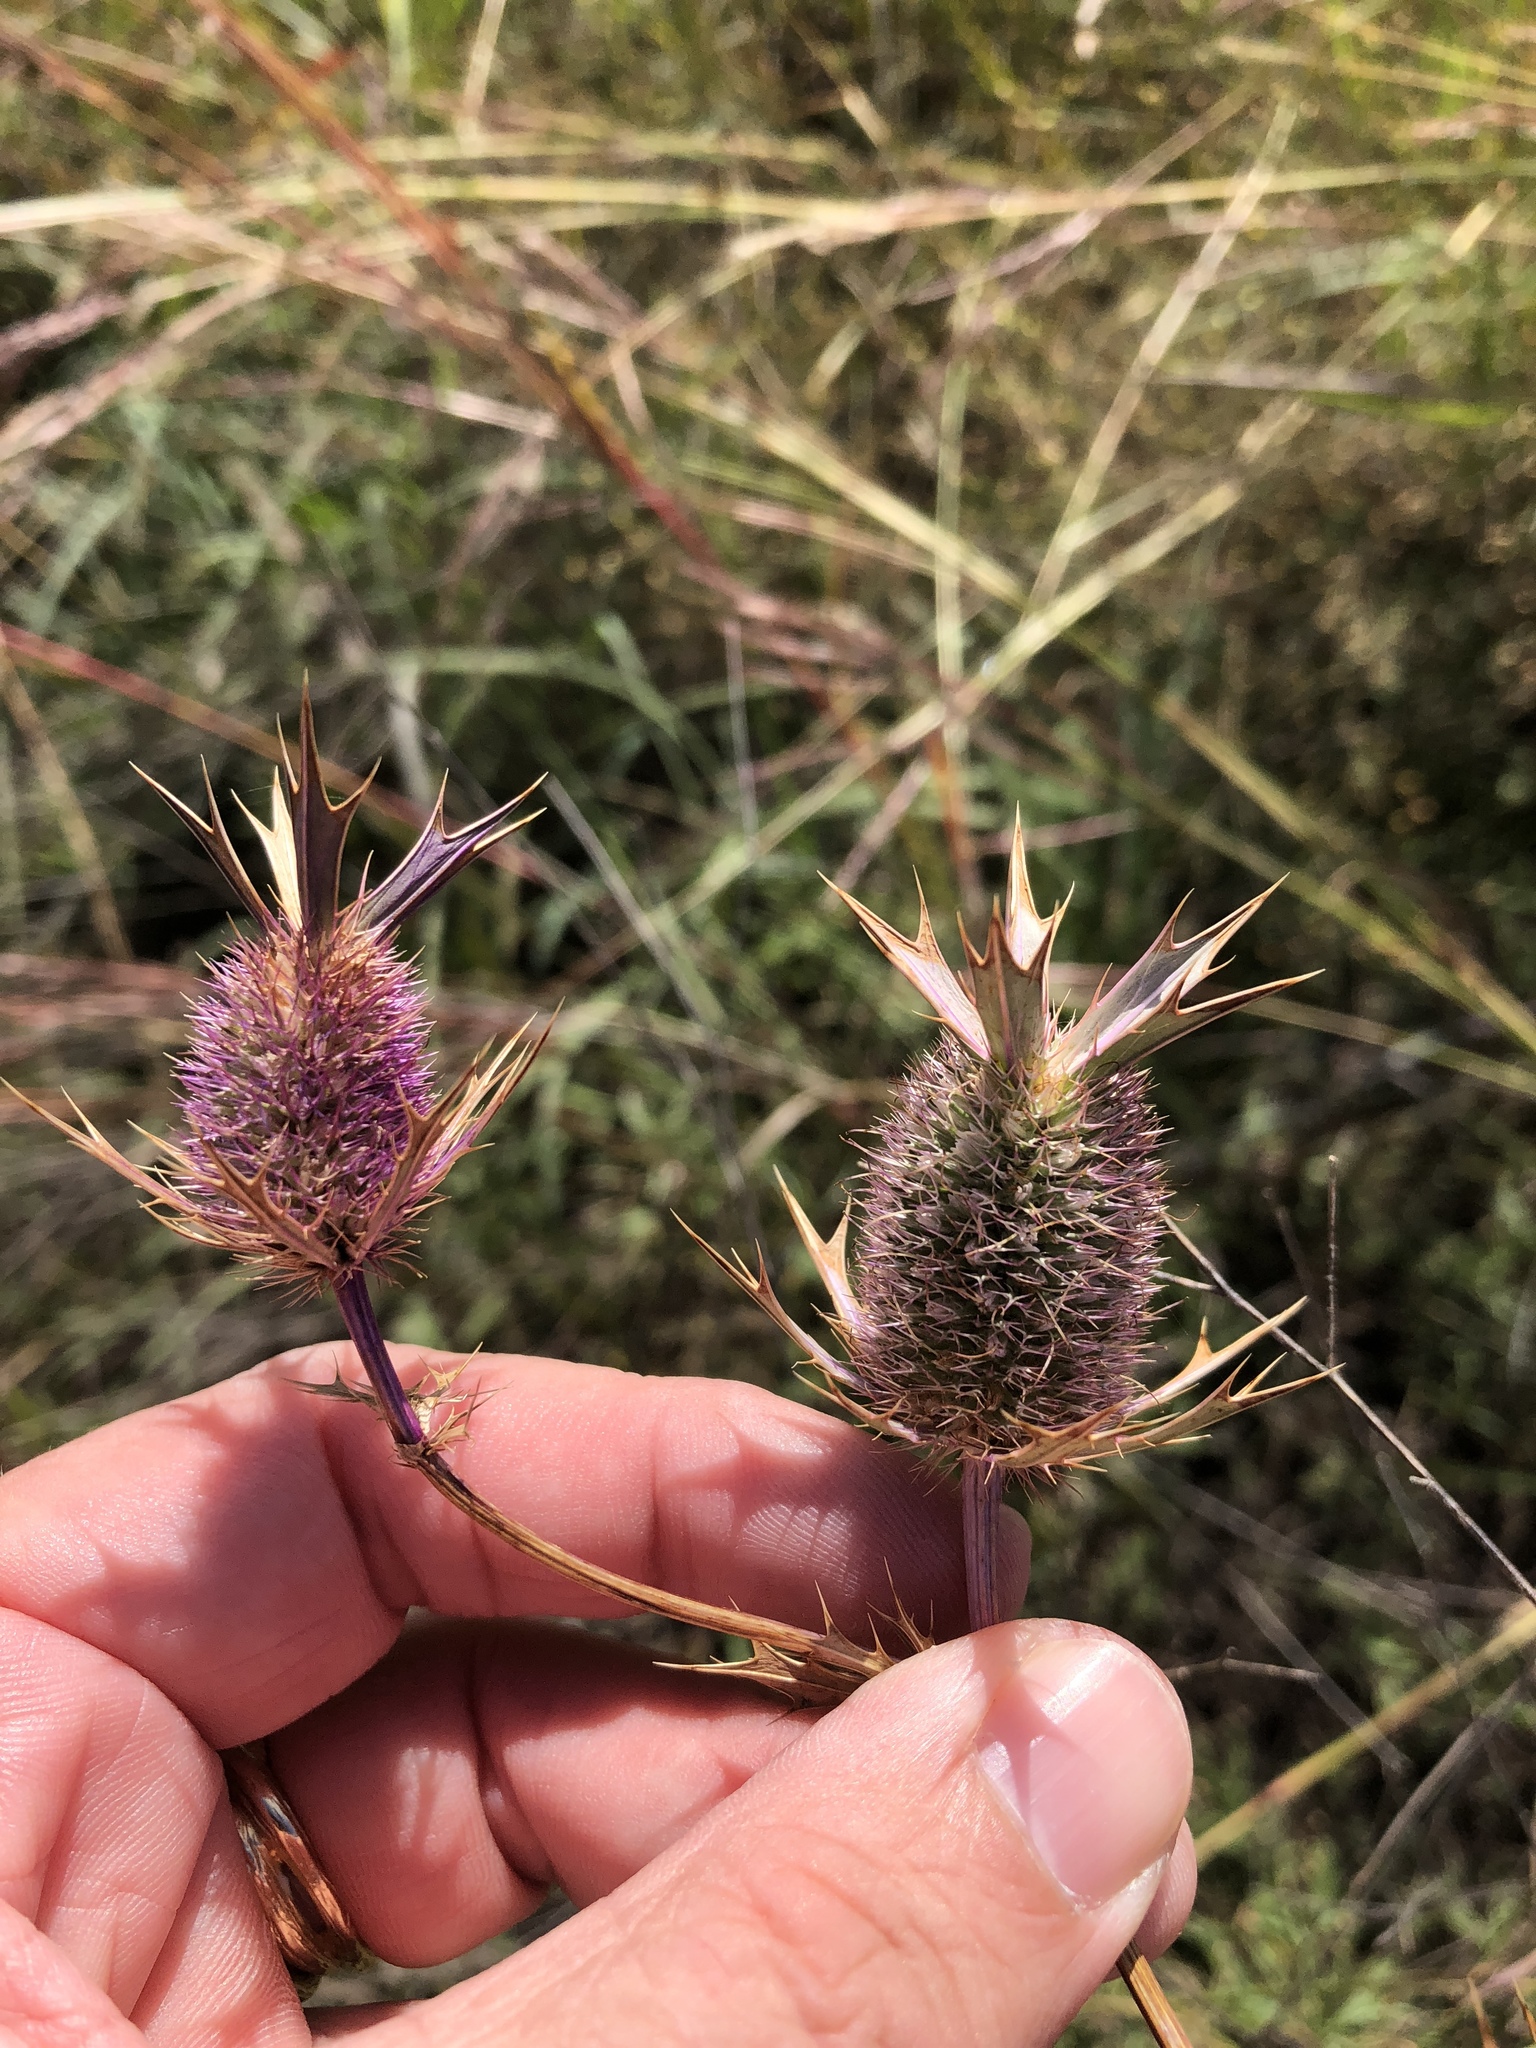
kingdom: Plantae
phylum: Tracheophyta
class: Magnoliopsida
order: Apiales
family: Apiaceae
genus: Eryngium
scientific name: Eryngium leavenworthii
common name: Leavenworth's eryngo
